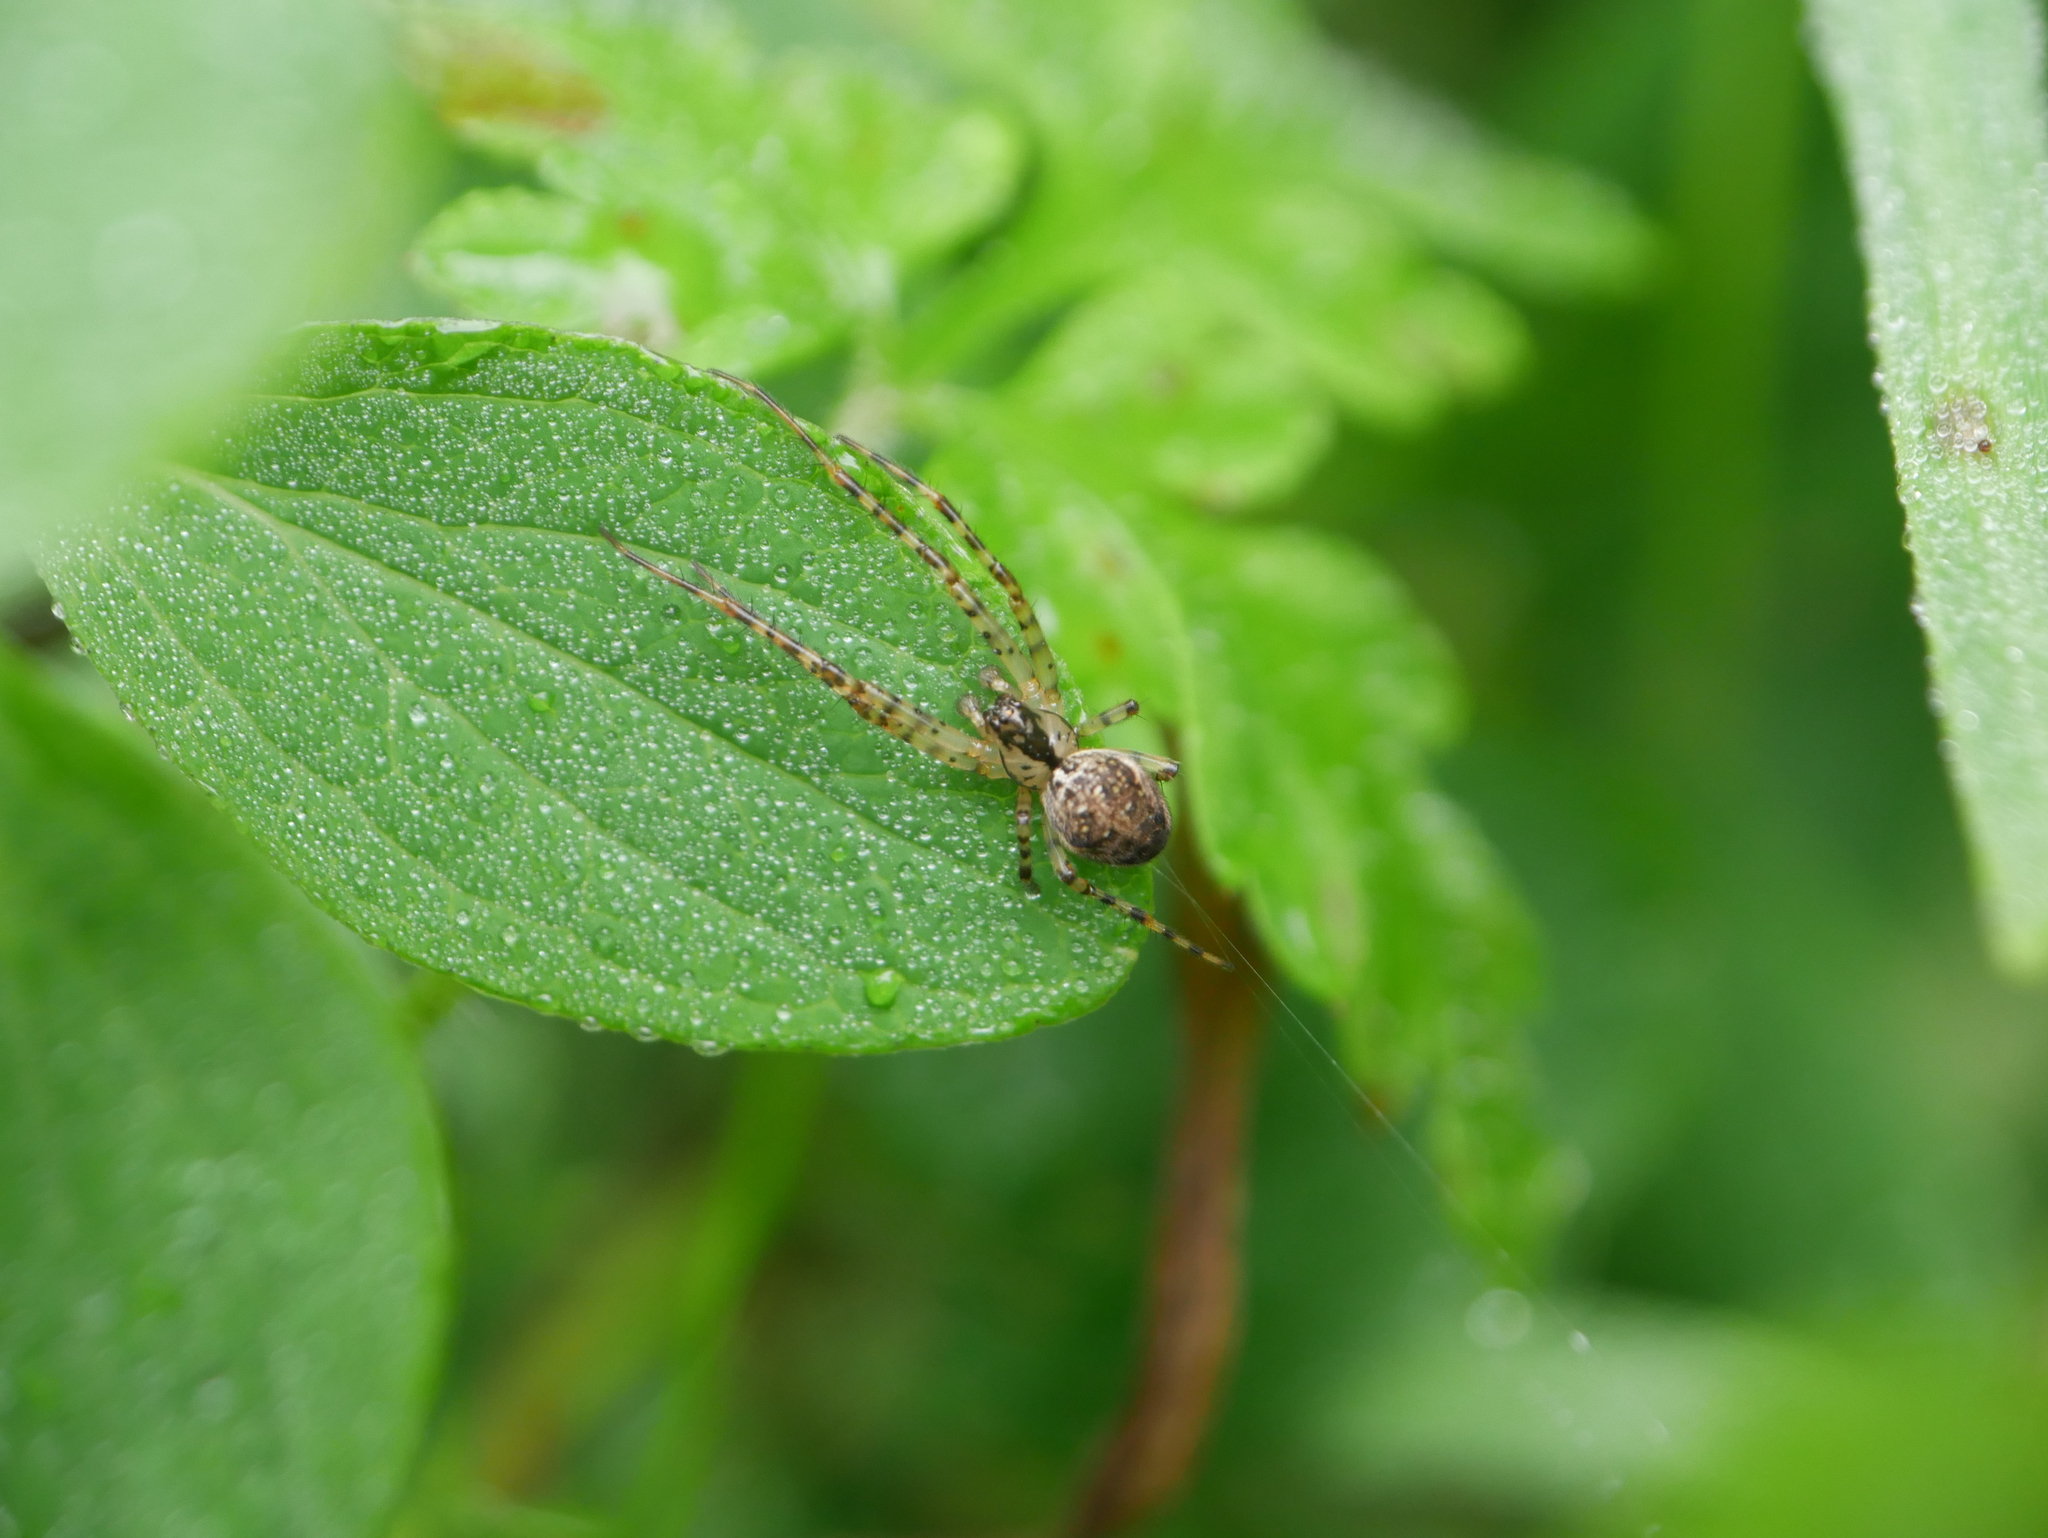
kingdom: Animalia
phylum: Arthropoda
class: Arachnida
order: Araneae
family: Tetragnathidae
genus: Metellina
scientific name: Metellina merianae
